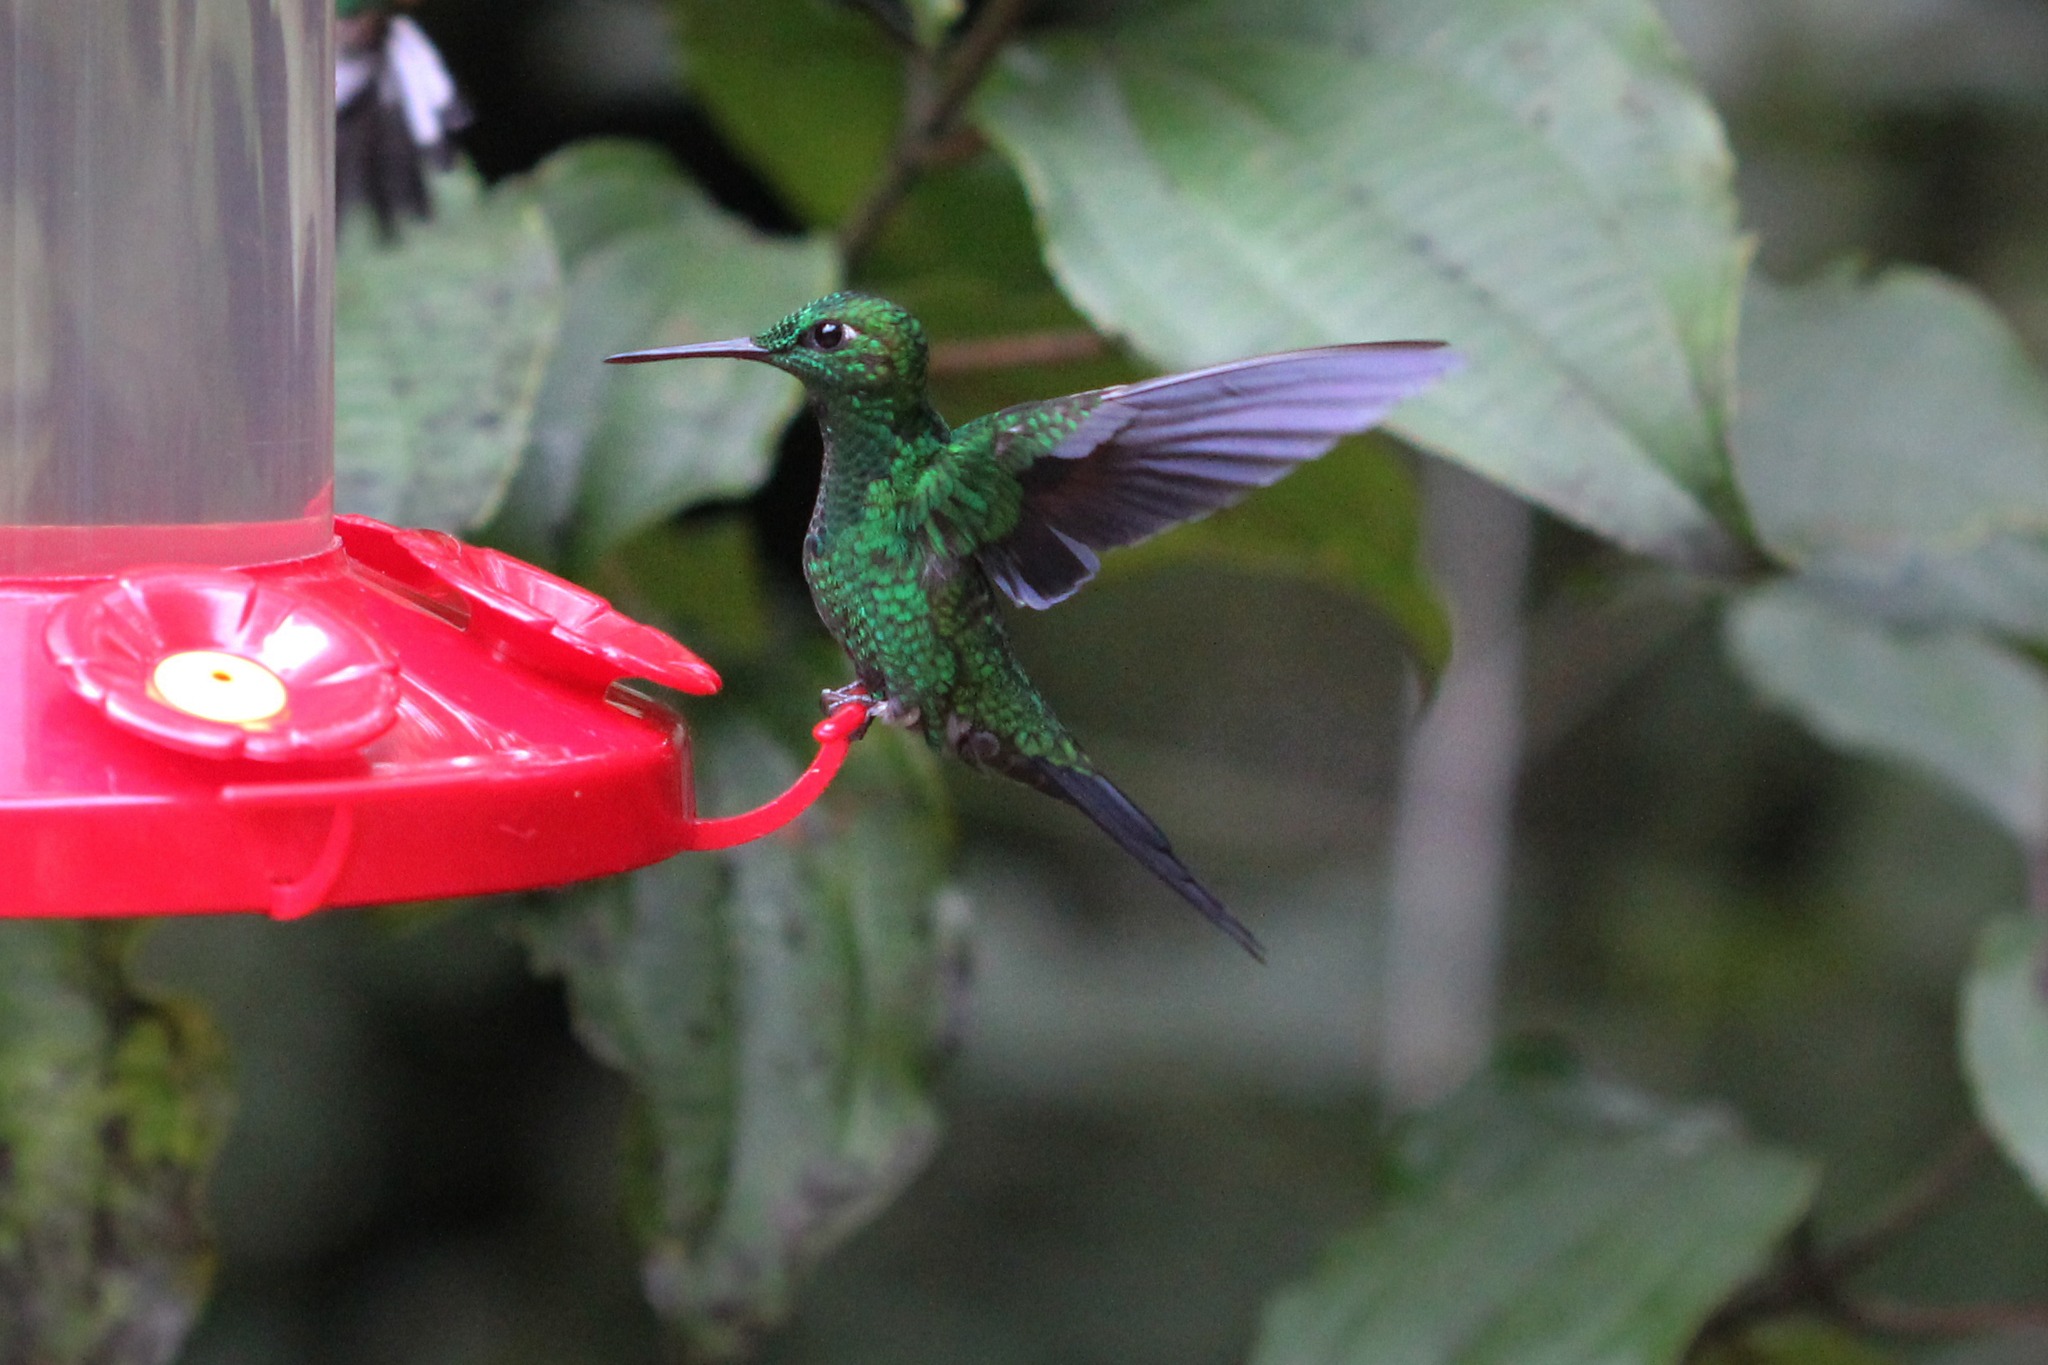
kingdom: Animalia
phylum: Chordata
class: Aves
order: Apodiformes
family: Trochilidae
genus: Heliodoxa
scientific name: Heliodoxa jacula
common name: Green-crowned brilliant
